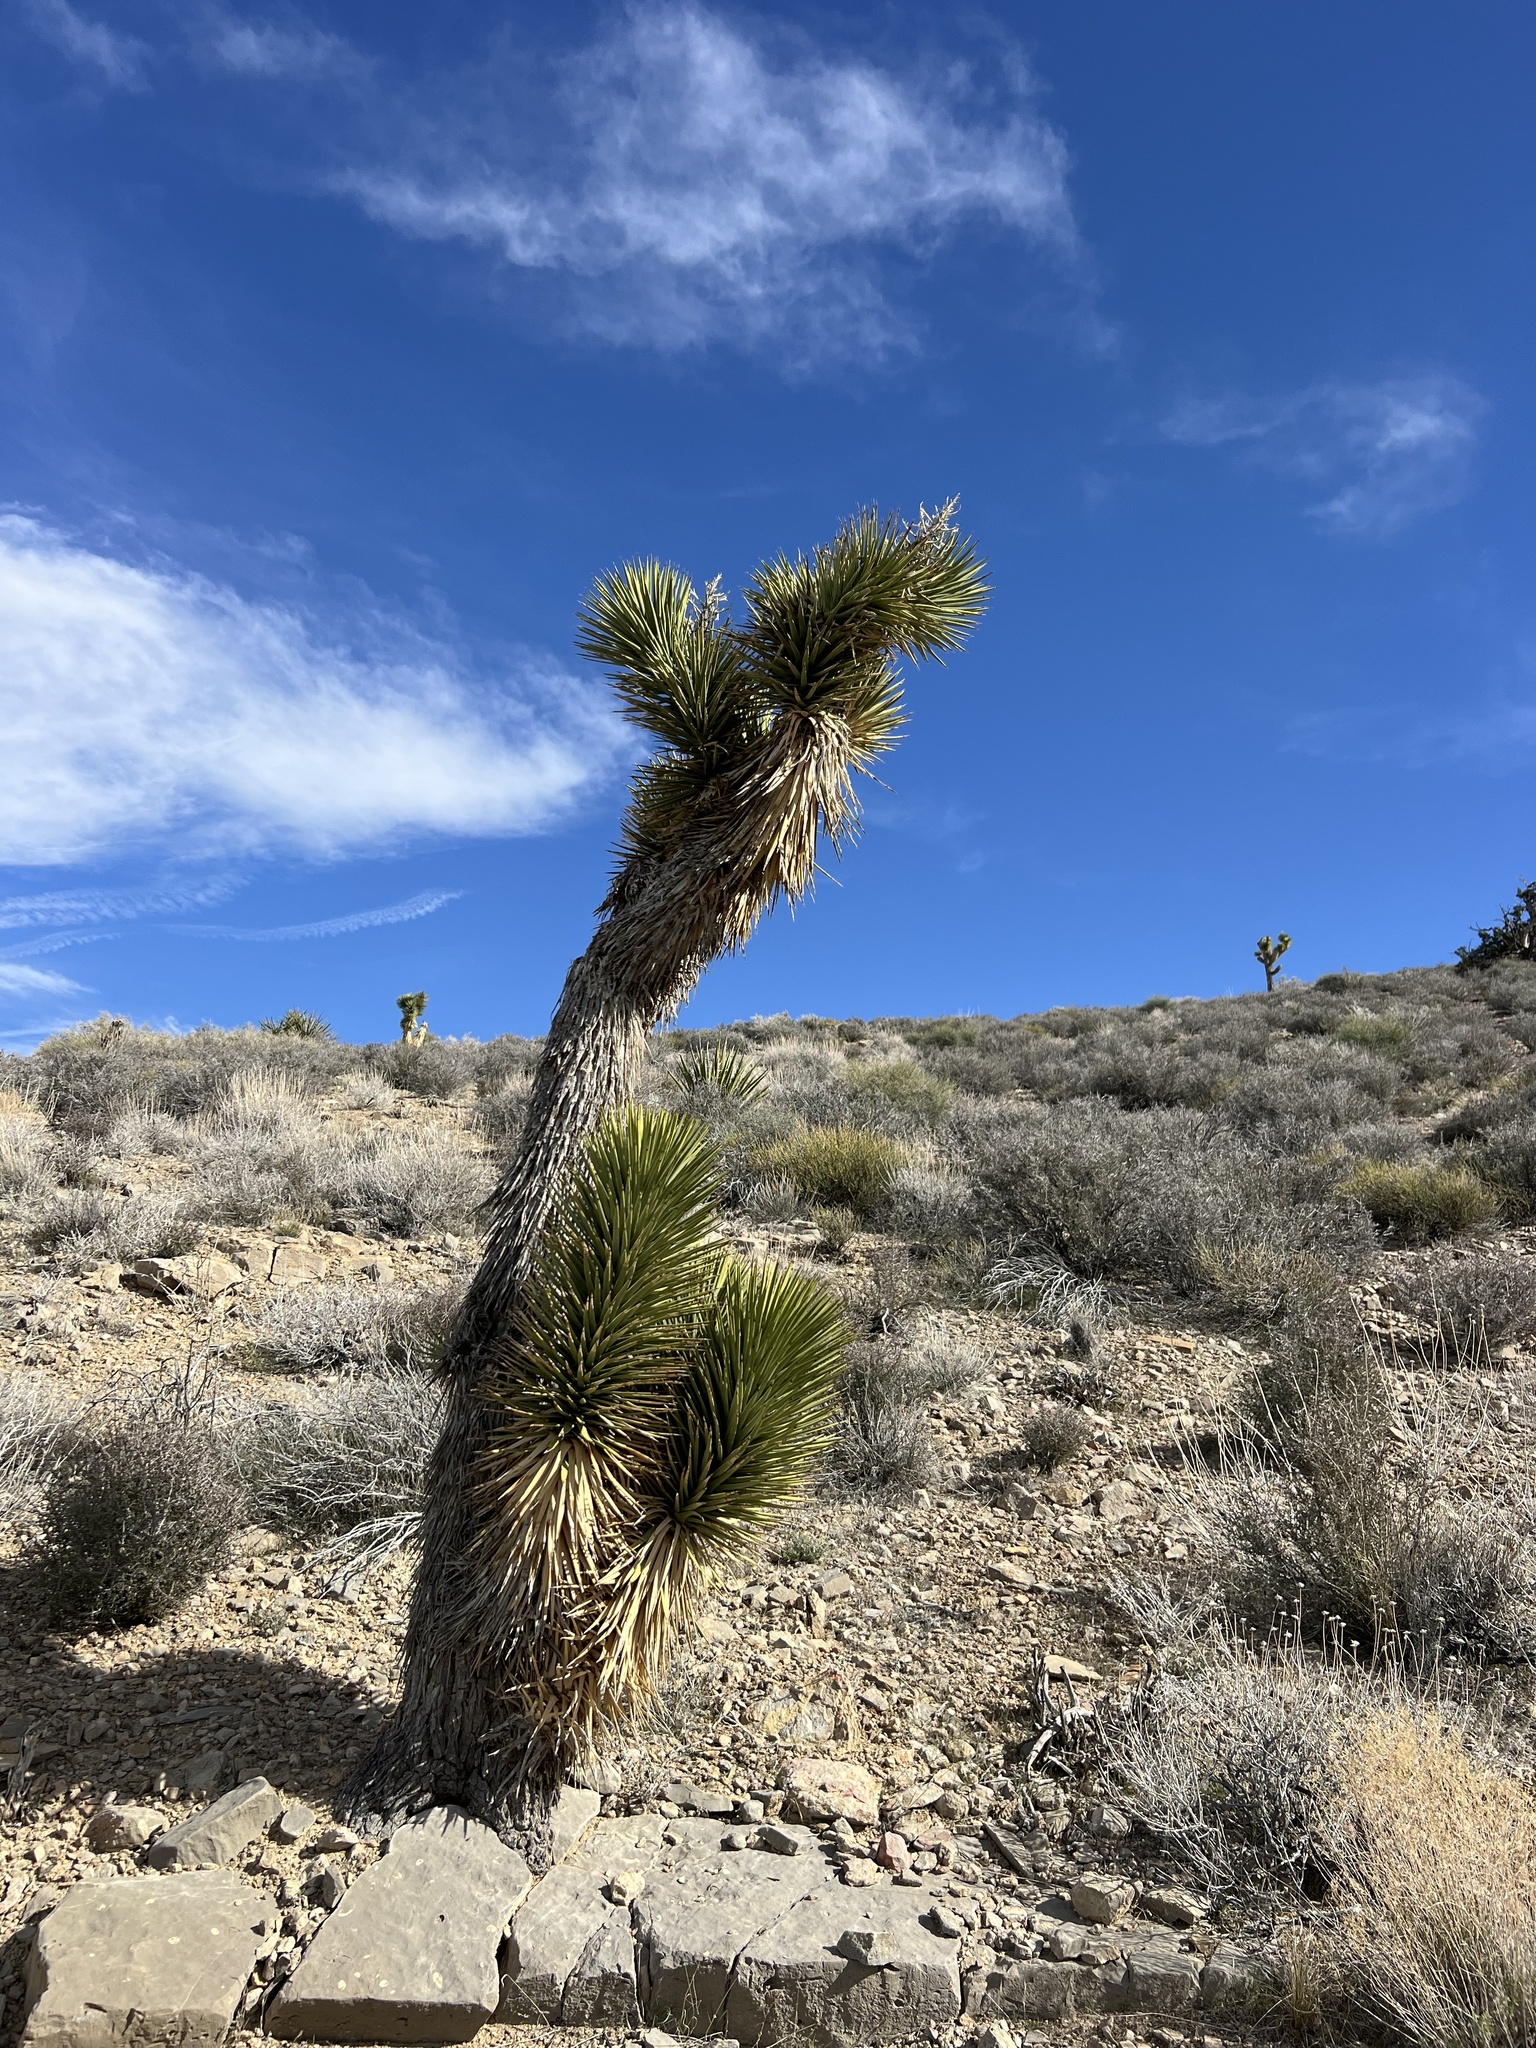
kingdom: Plantae
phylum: Tracheophyta
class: Liliopsida
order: Asparagales
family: Asparagaceae
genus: Yucca
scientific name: Yucca brevifolia
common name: Joshua tree
